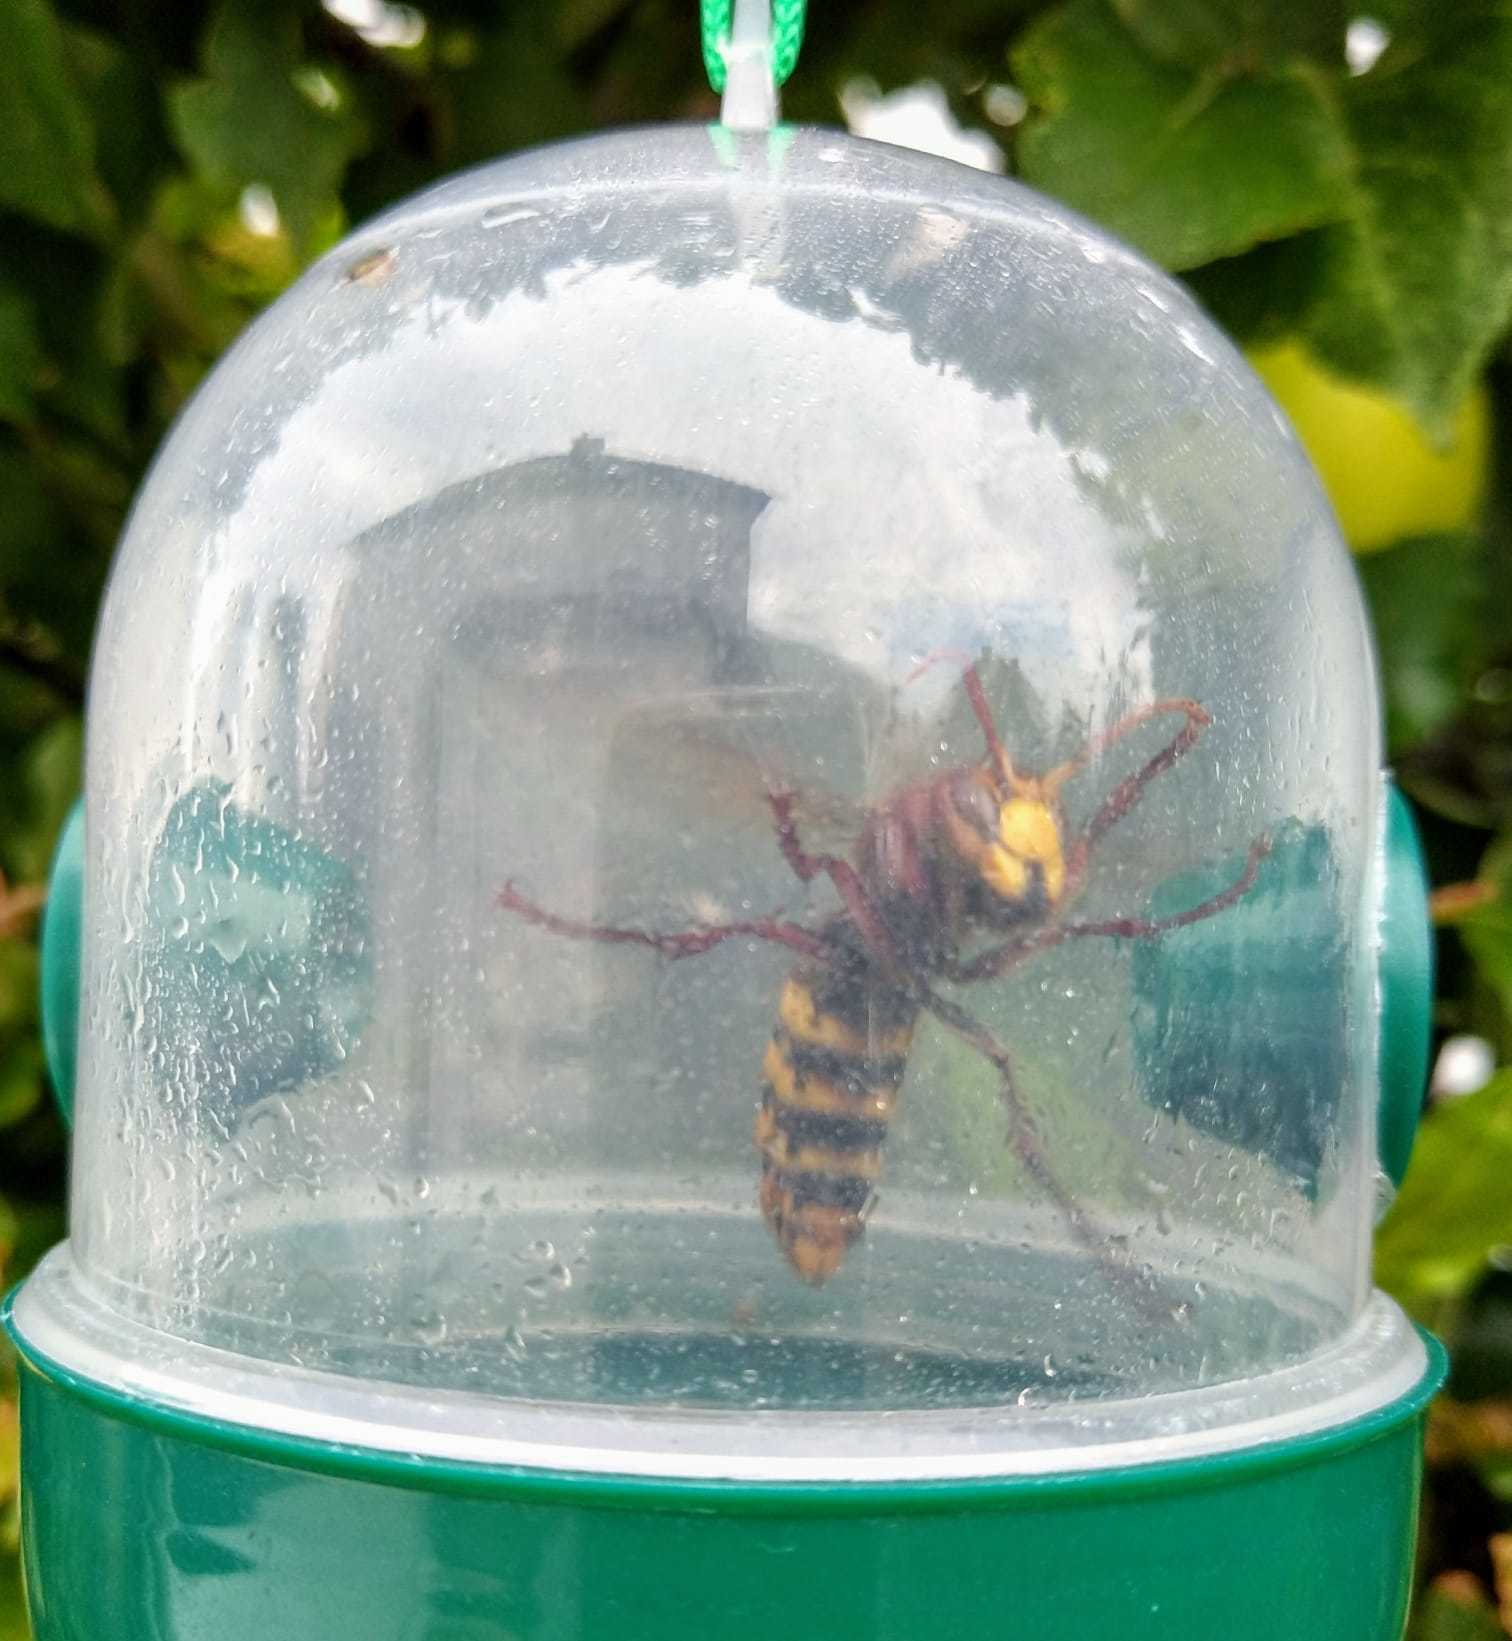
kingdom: Animalia
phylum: Arthropoda
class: Insecta
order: Hymenoptera
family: Vespidae
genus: Vespa
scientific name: Vespa crabro
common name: Hornet
